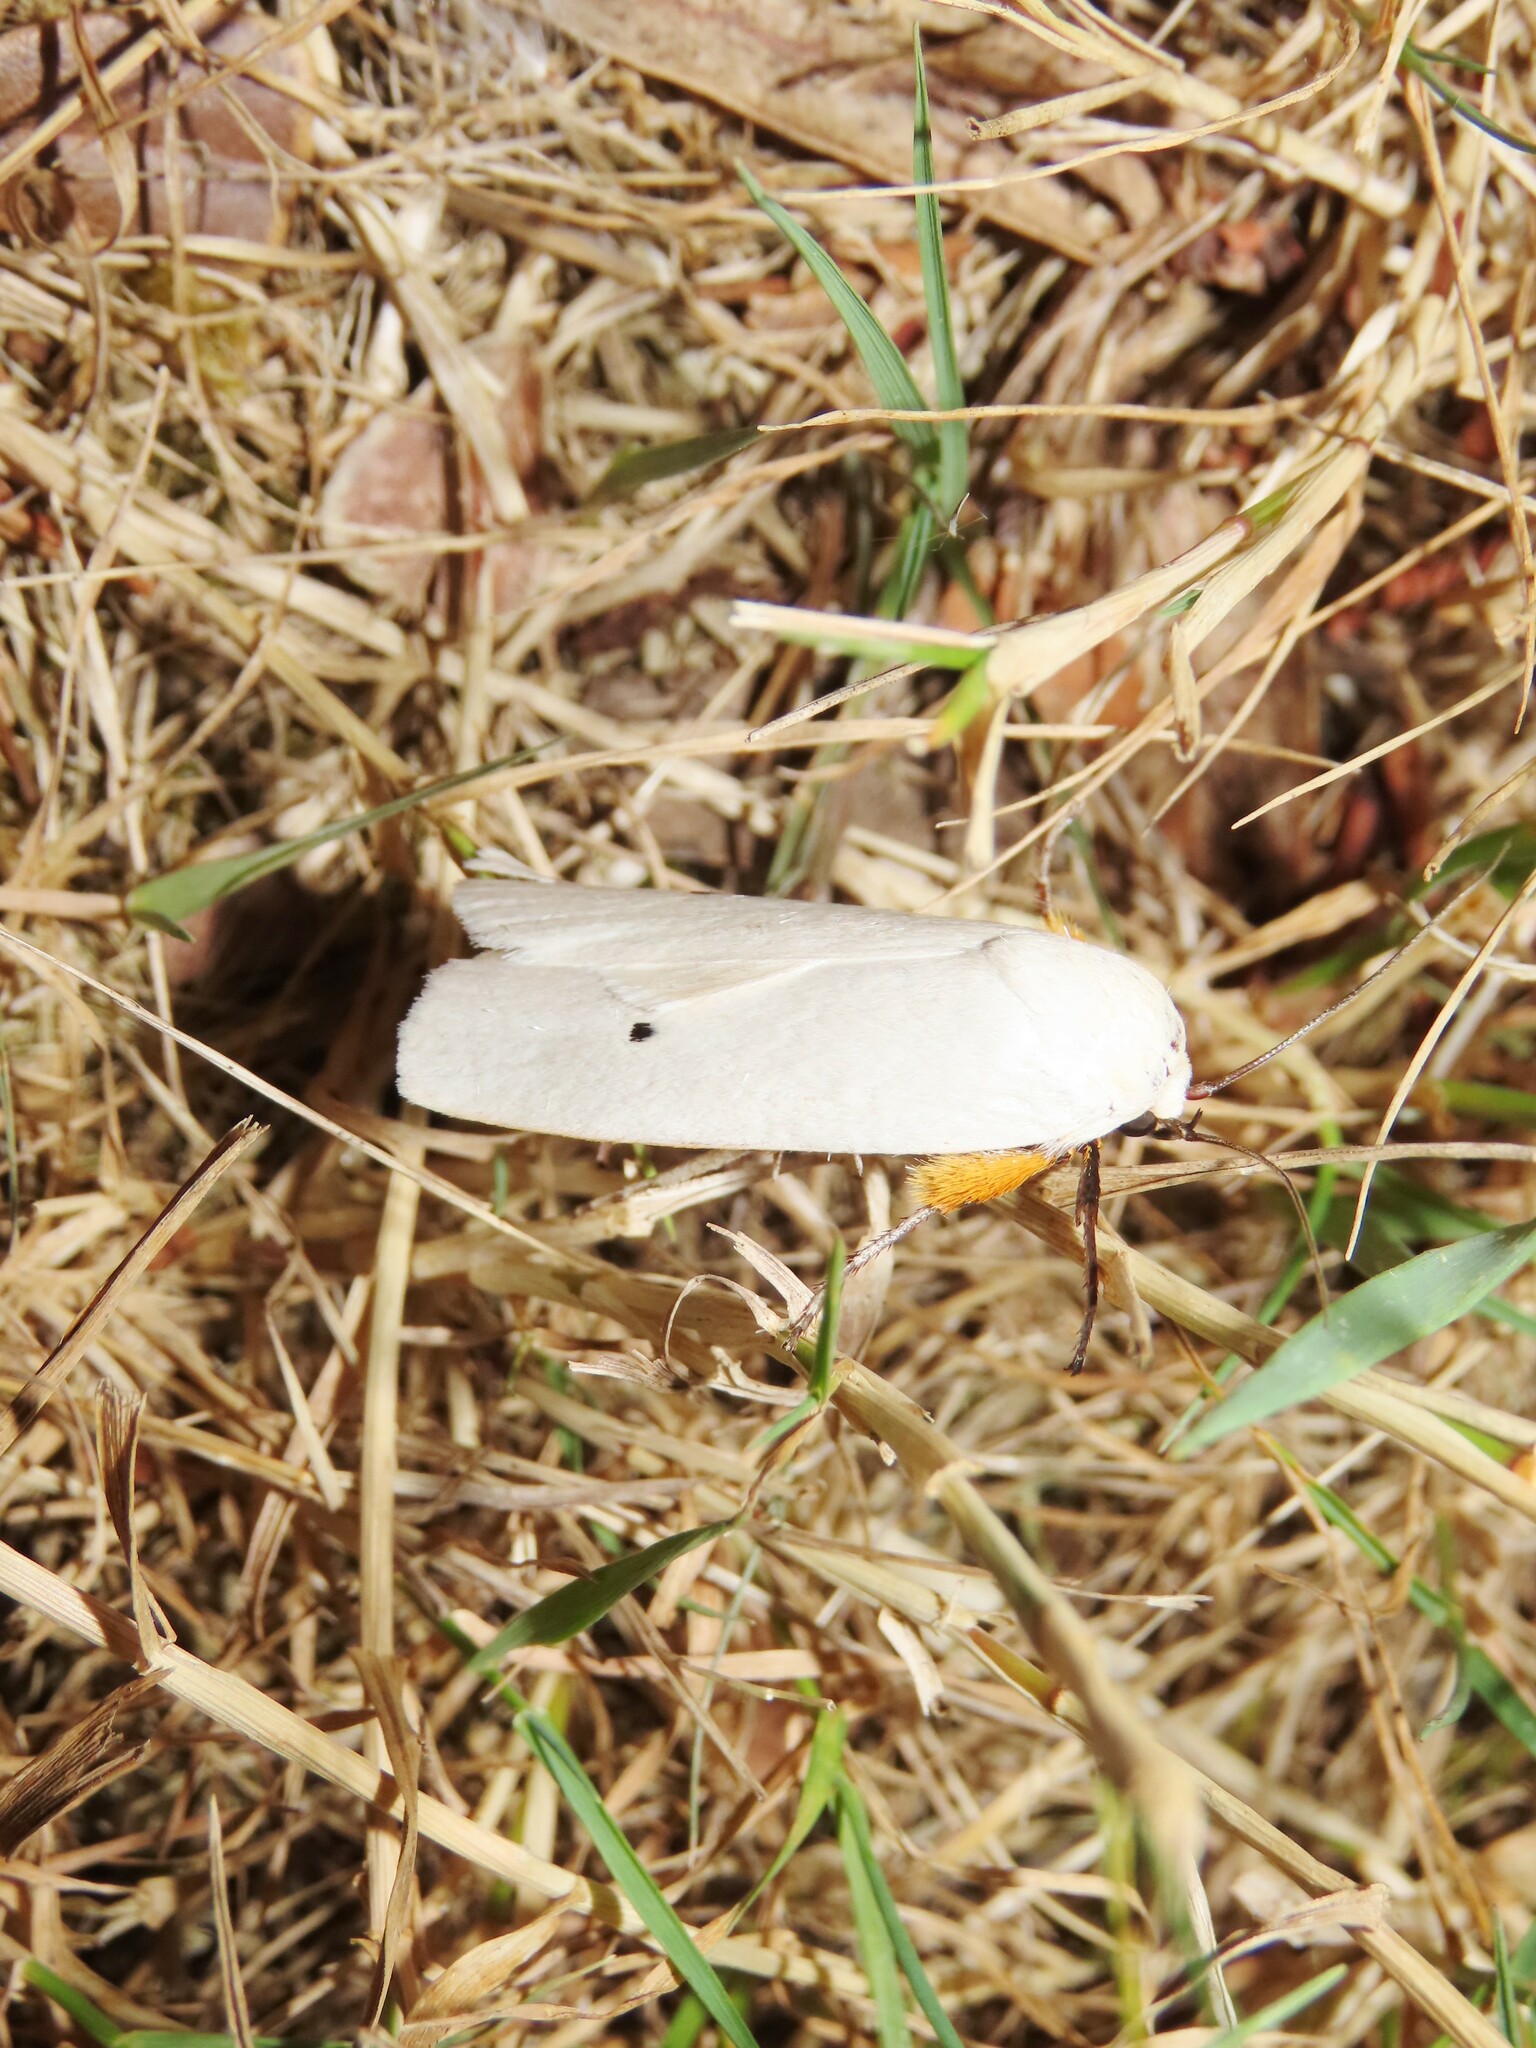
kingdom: Animalia
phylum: Arthropoda
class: Insecta
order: Lepidoptera
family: Xyloryctidae
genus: Maroga
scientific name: Maroga melanostigma
